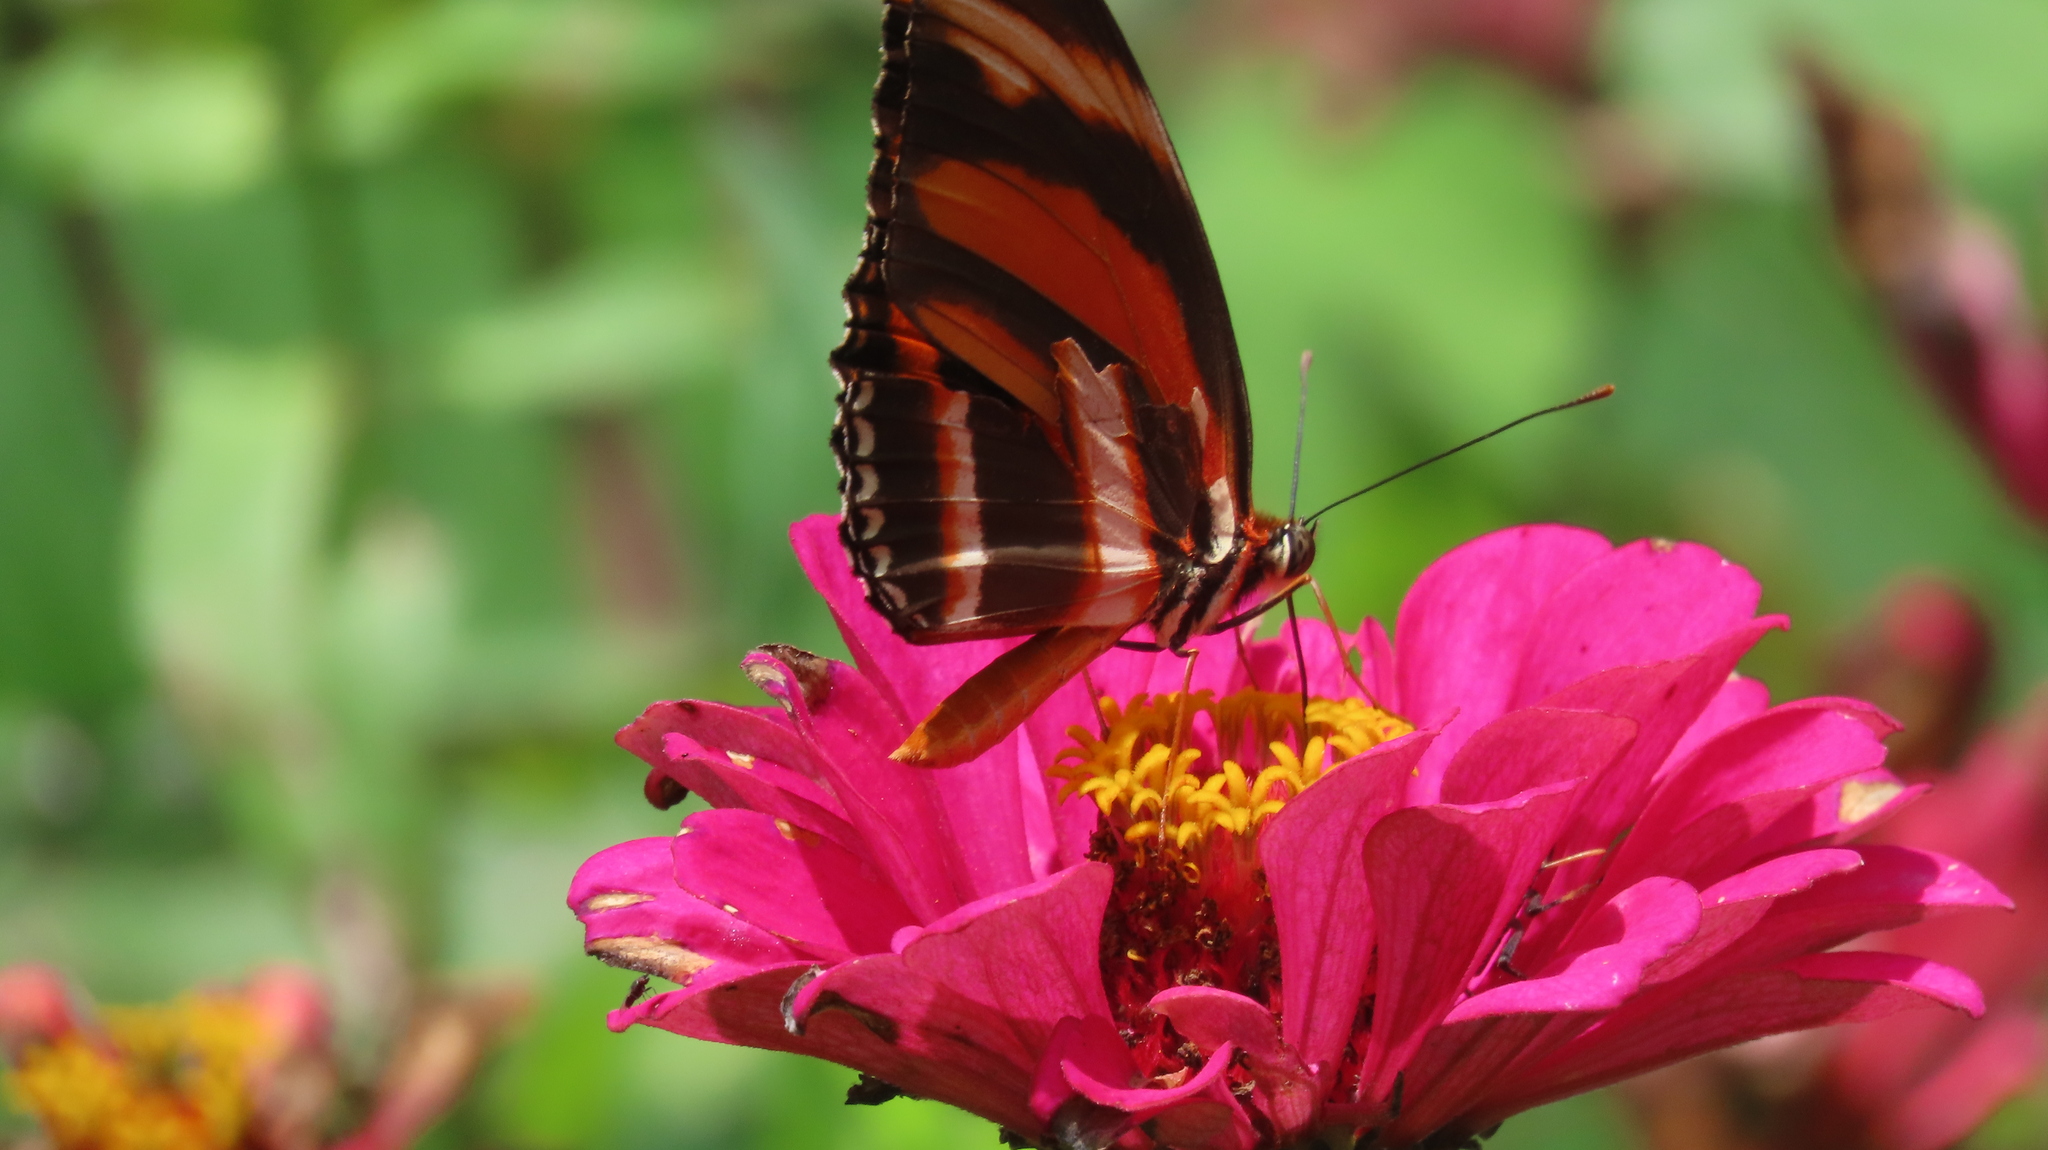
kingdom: Animalia
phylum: Arthropoda
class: Insecta
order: Lepidoptera
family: Nymphalidae
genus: Dryadula
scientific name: Dryadula phaetusa
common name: Banded orange heliconian
